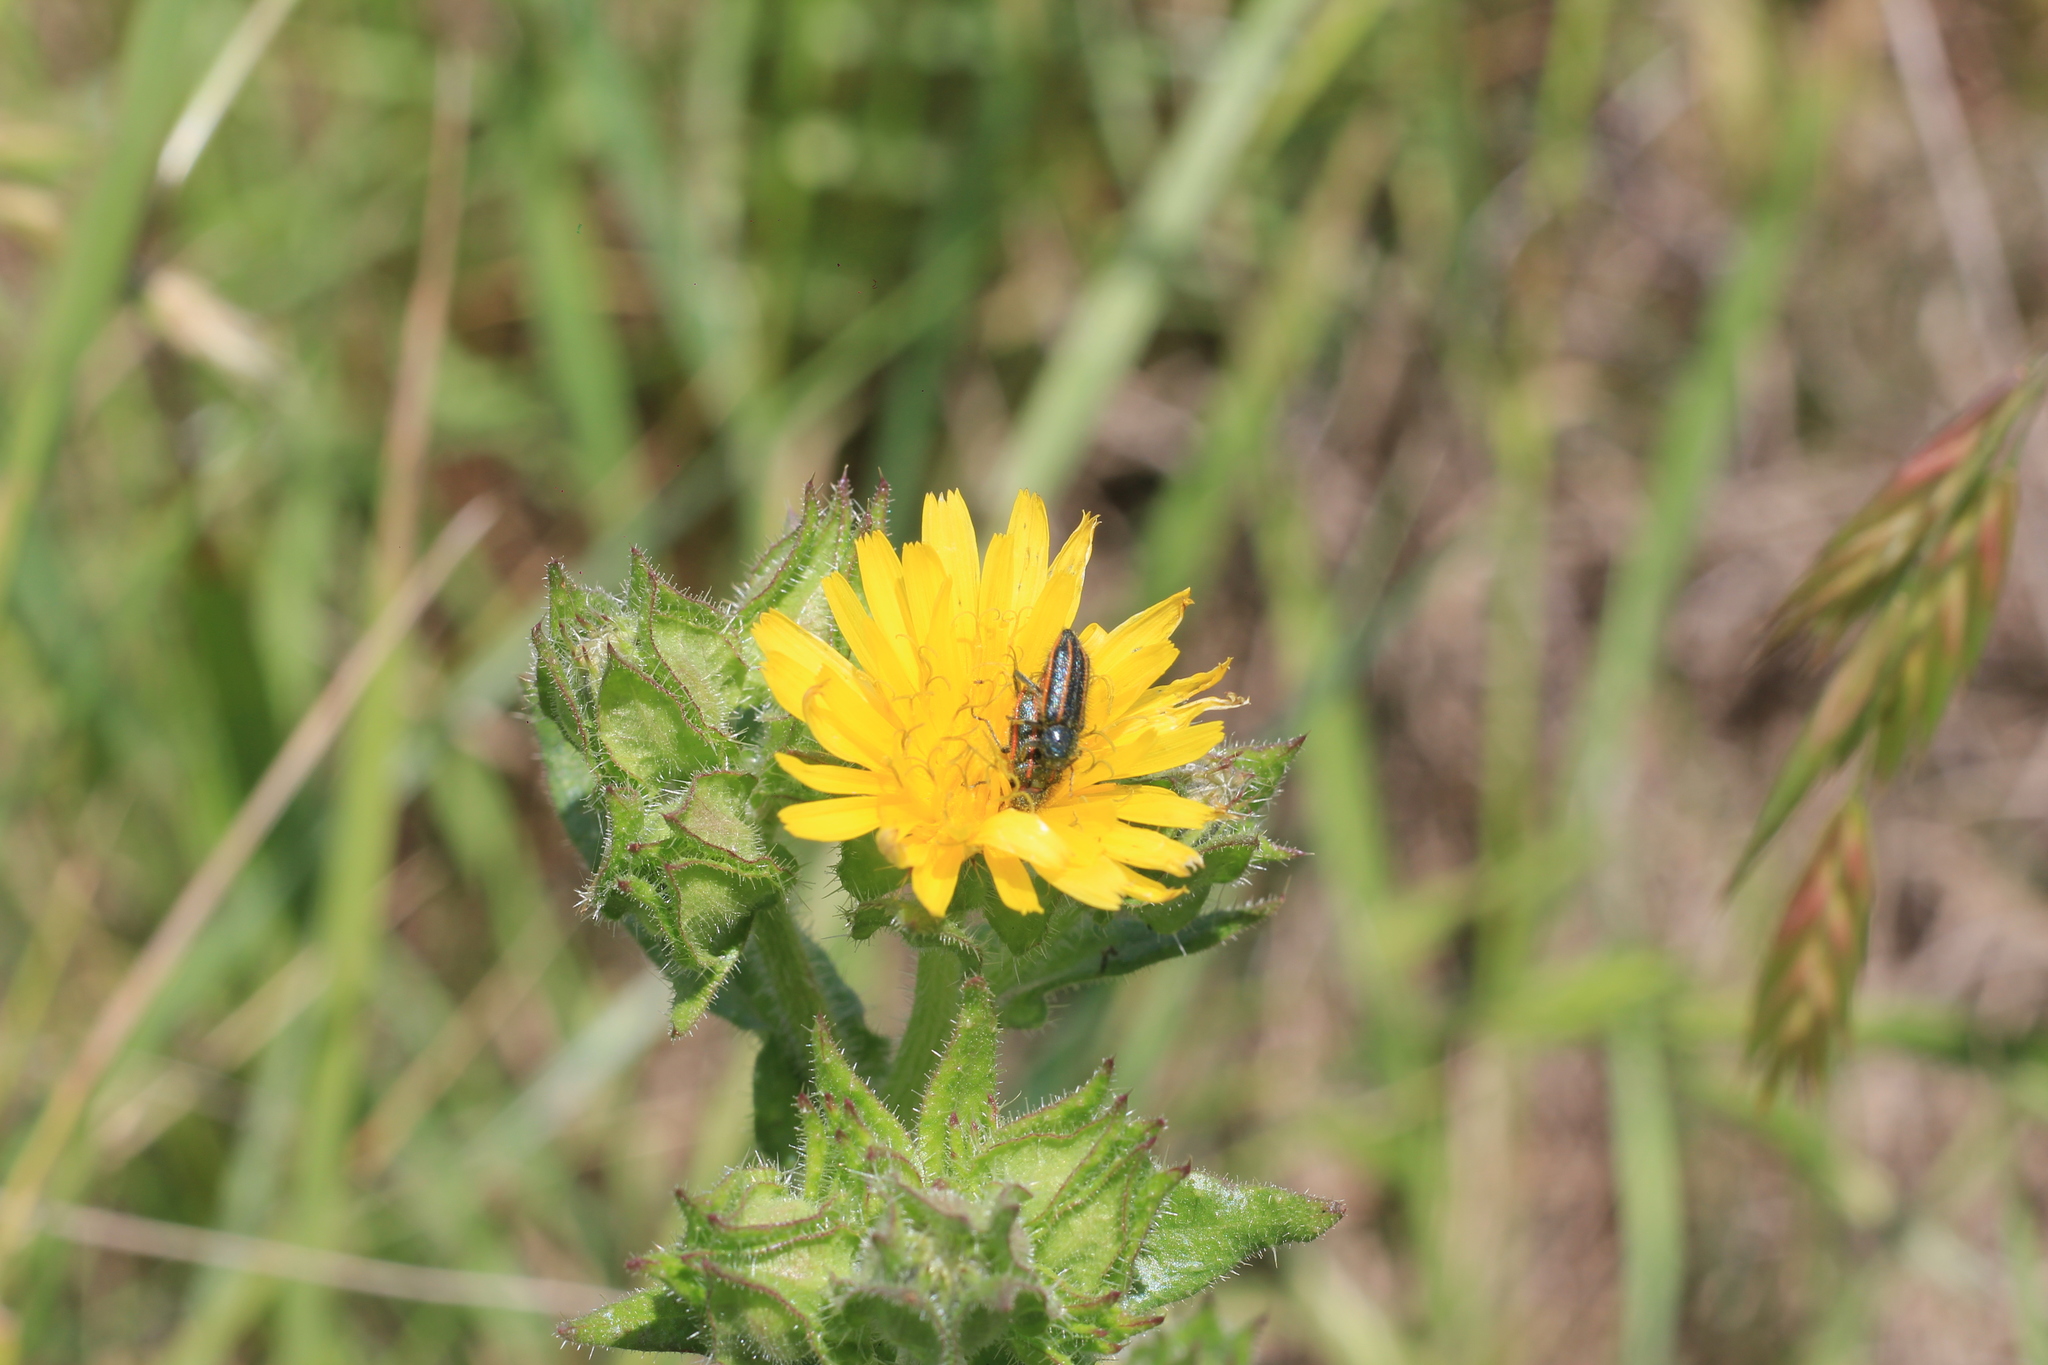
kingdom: Animalia
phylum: Arthropoda
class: Insecta
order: Coleoptera
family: Melyridae
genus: Astylus
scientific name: Astylus
